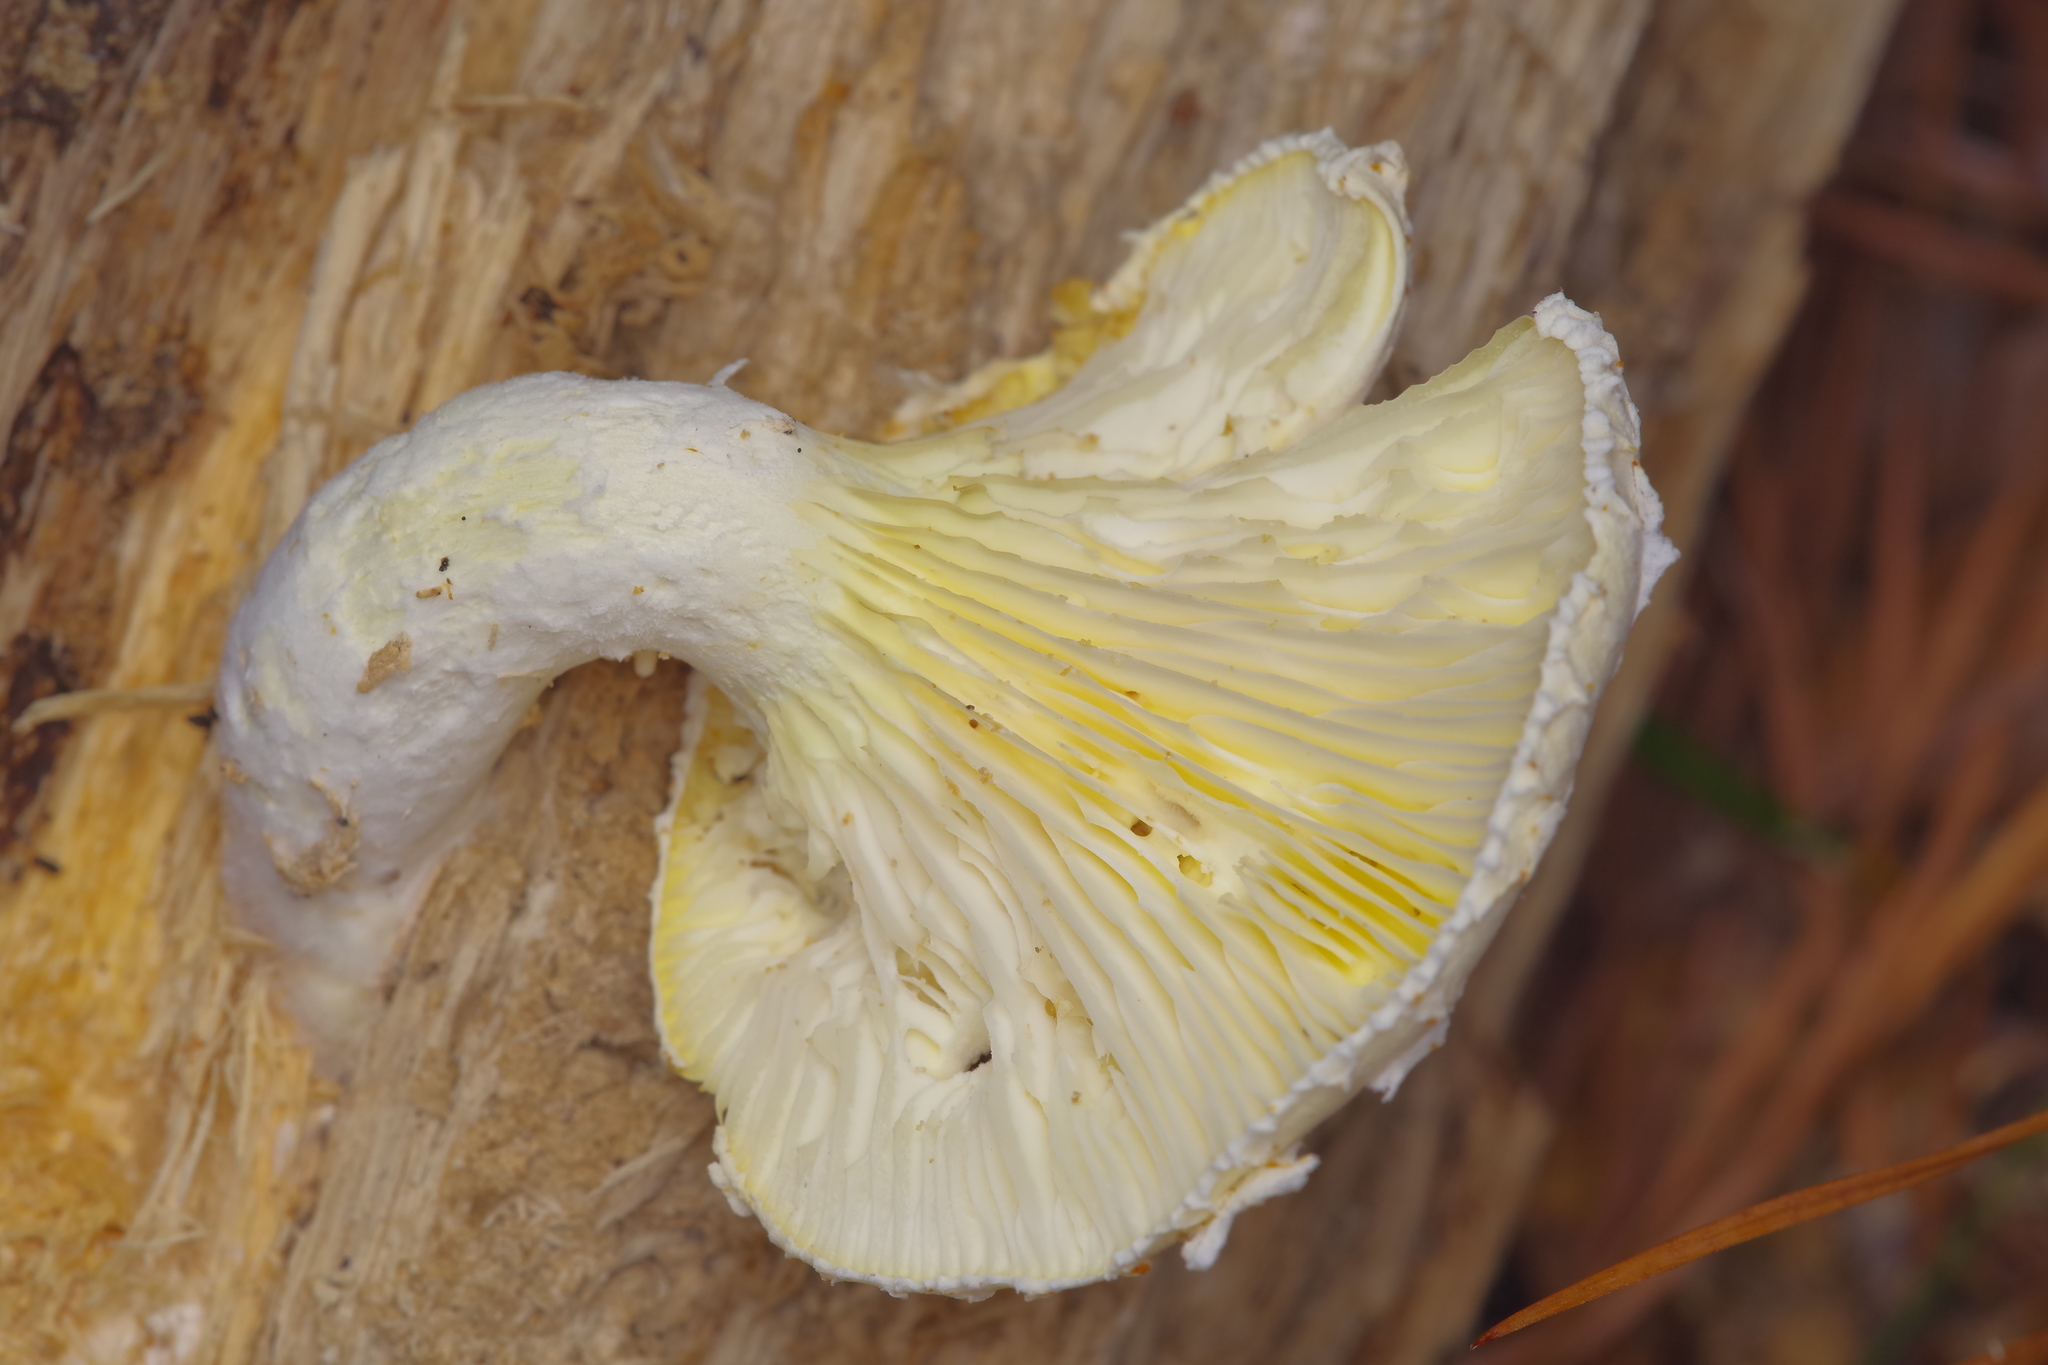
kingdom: Fungi
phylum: Basidiomycota
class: Agaricomycetes
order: Polyporales
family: Polyporaceae
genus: Lentinus
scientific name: Lentinus levis
